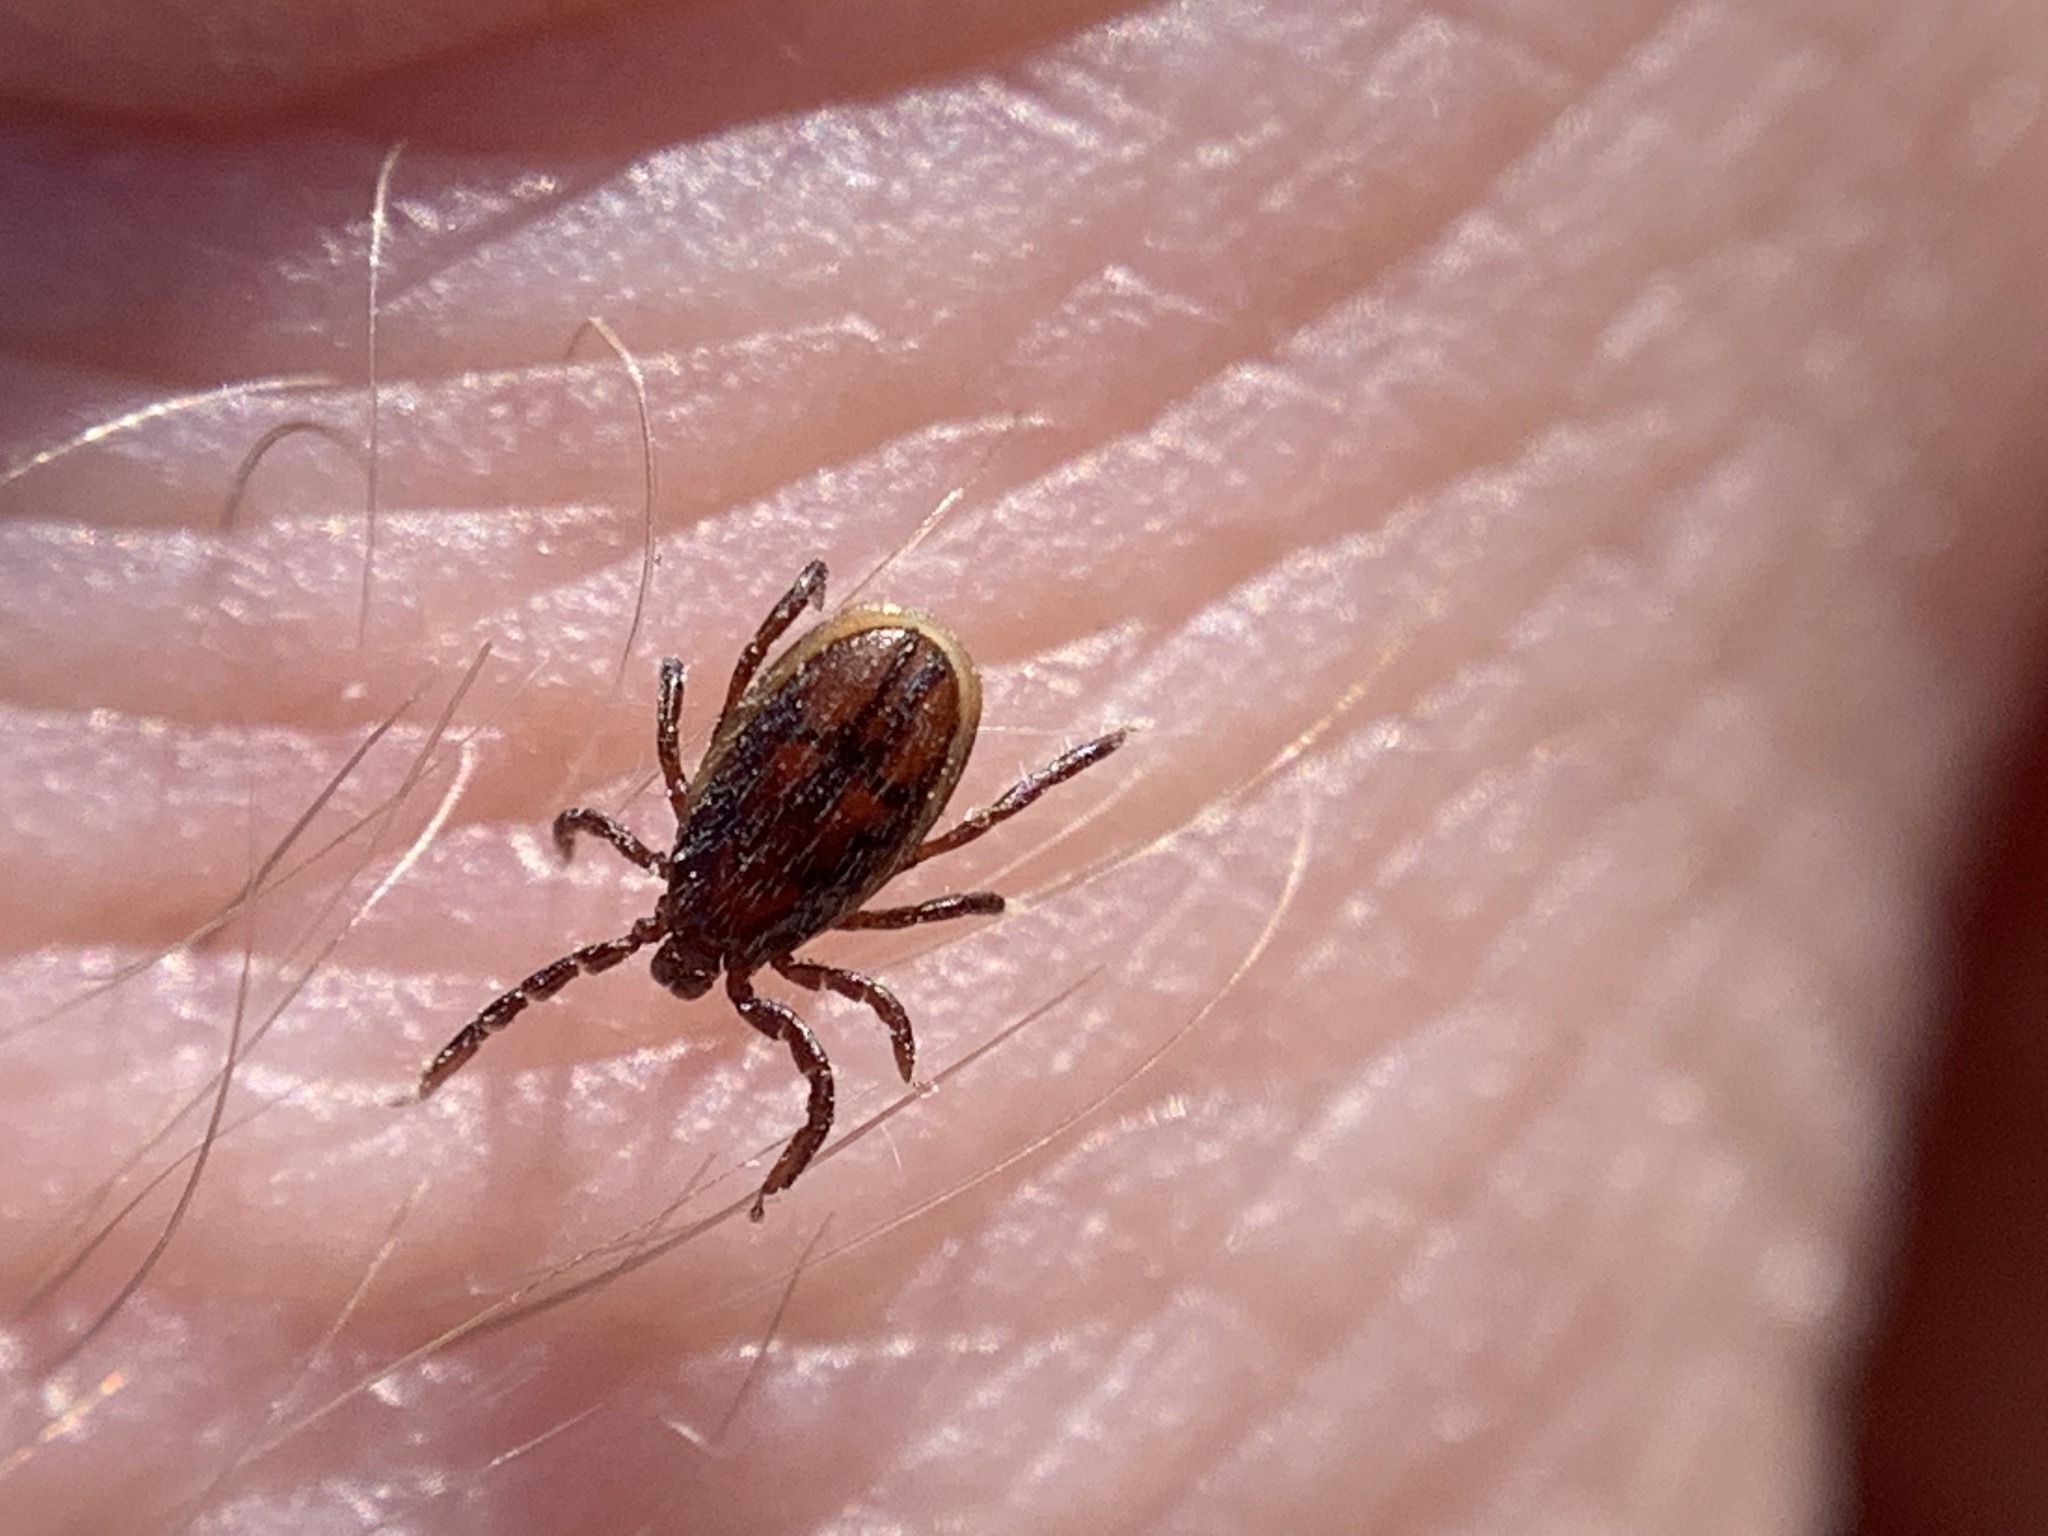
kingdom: Animalia
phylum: Arthropoda
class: Arachnida
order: Ixodida
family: Ixodidae
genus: Ixodes
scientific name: Ixodes pacificus
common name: California black-legged tick
